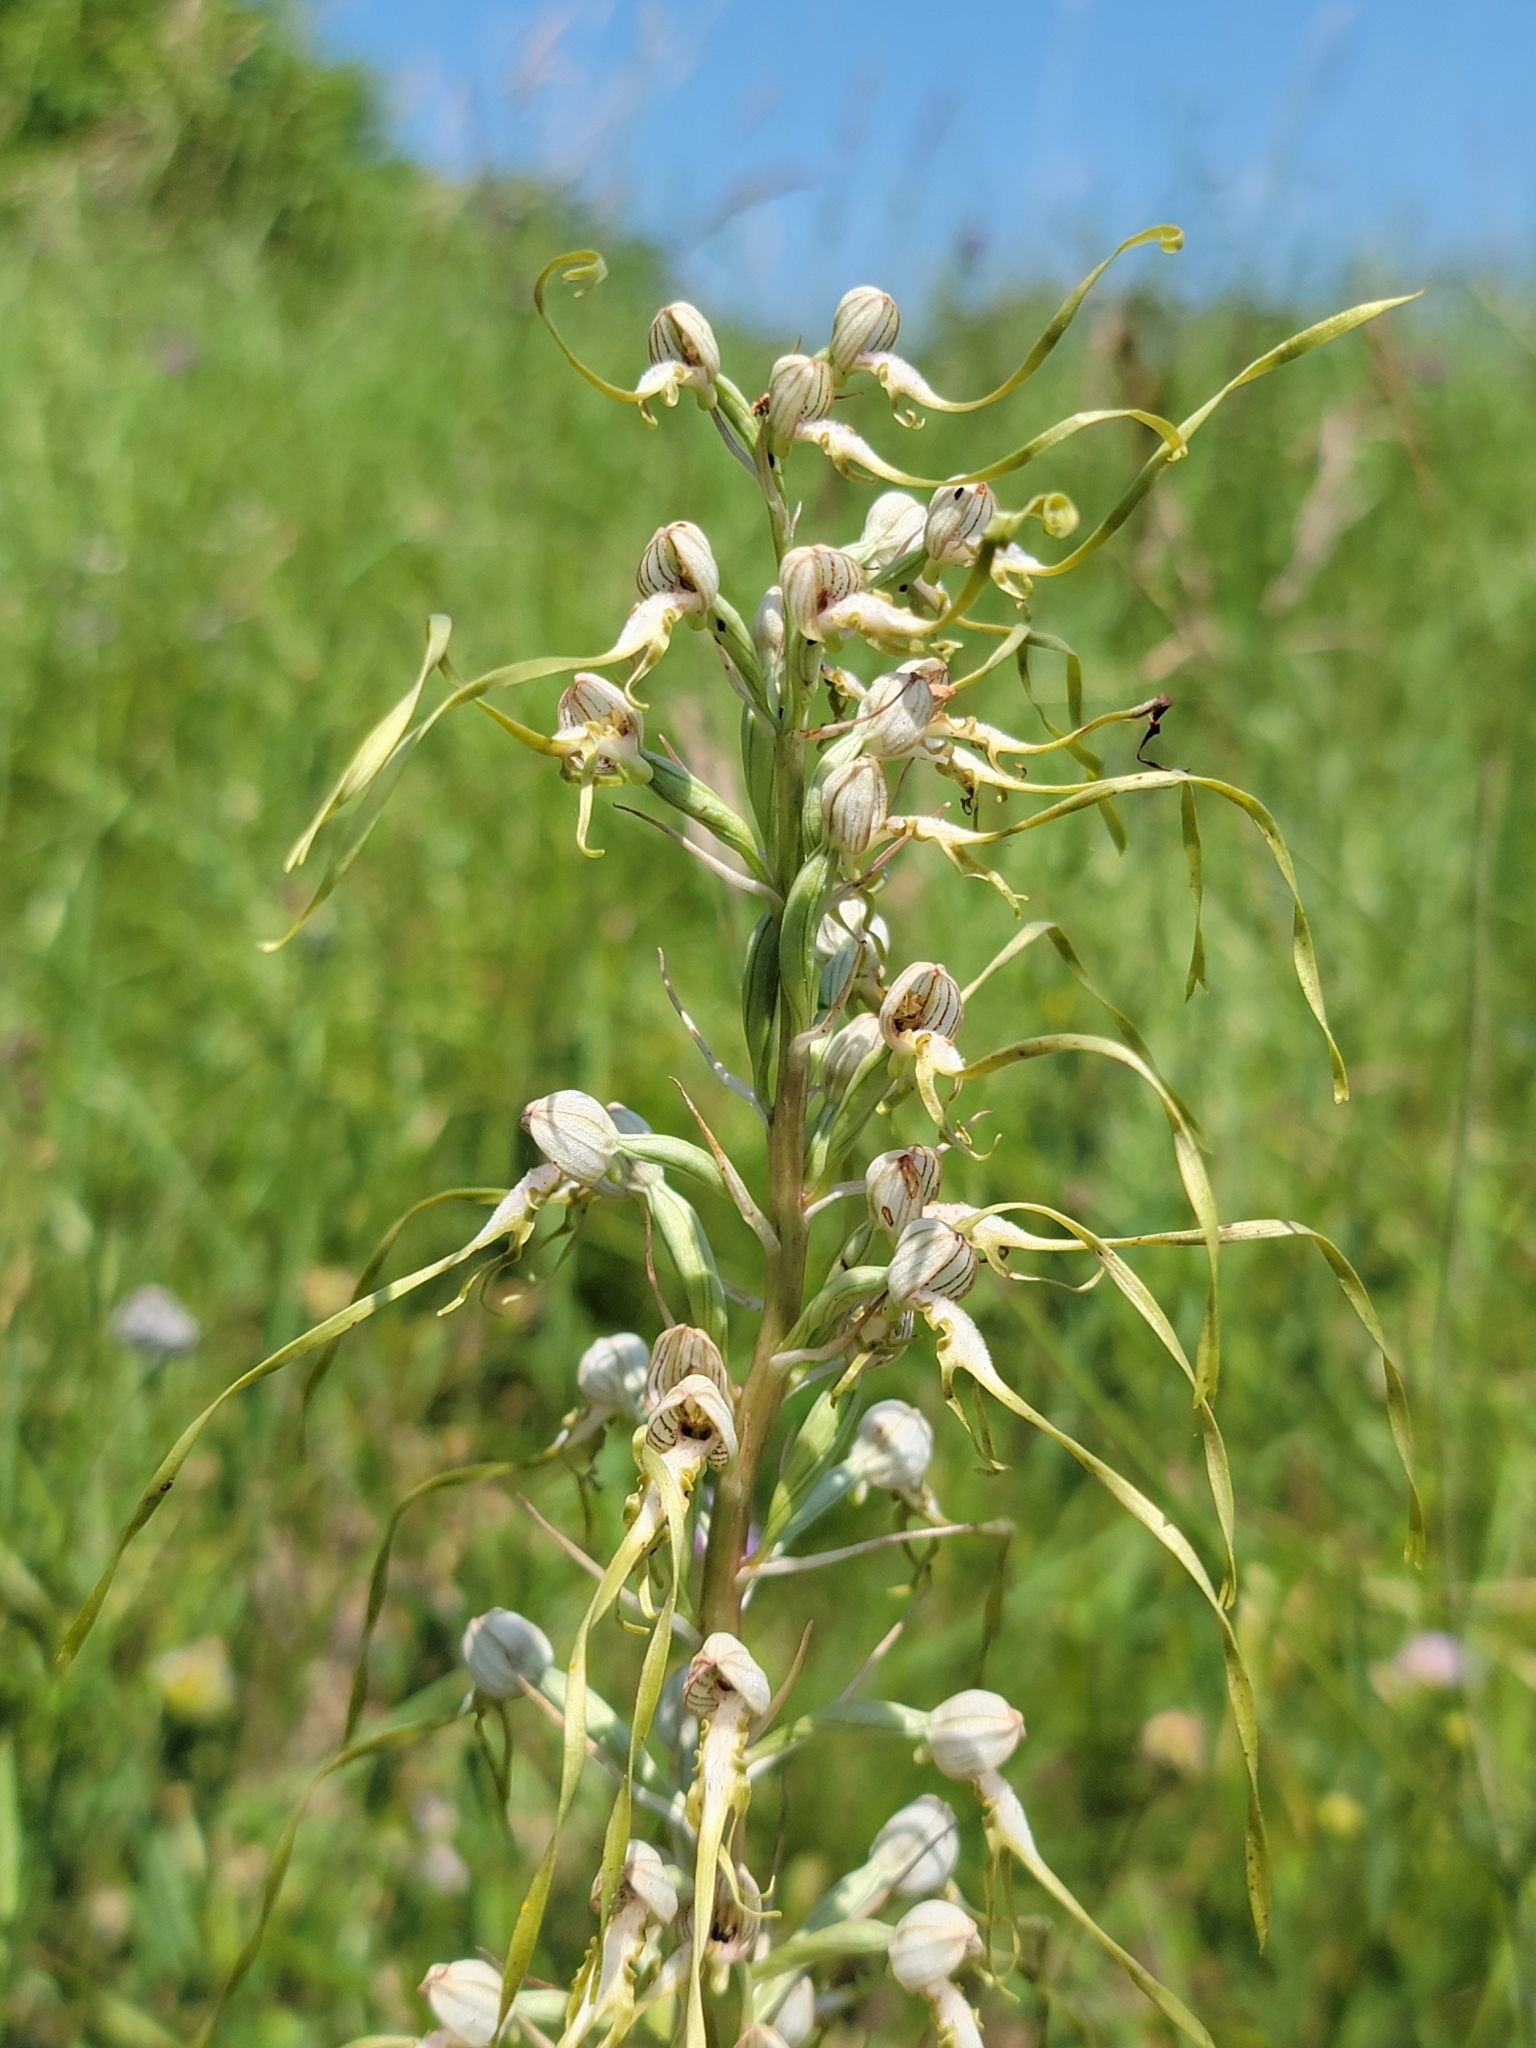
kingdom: Plantae
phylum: Tracheophyta
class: Liliopsida
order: Asparagales
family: Orchidaceae
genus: Himantoglossum
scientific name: Himantoglossum adriaticum
